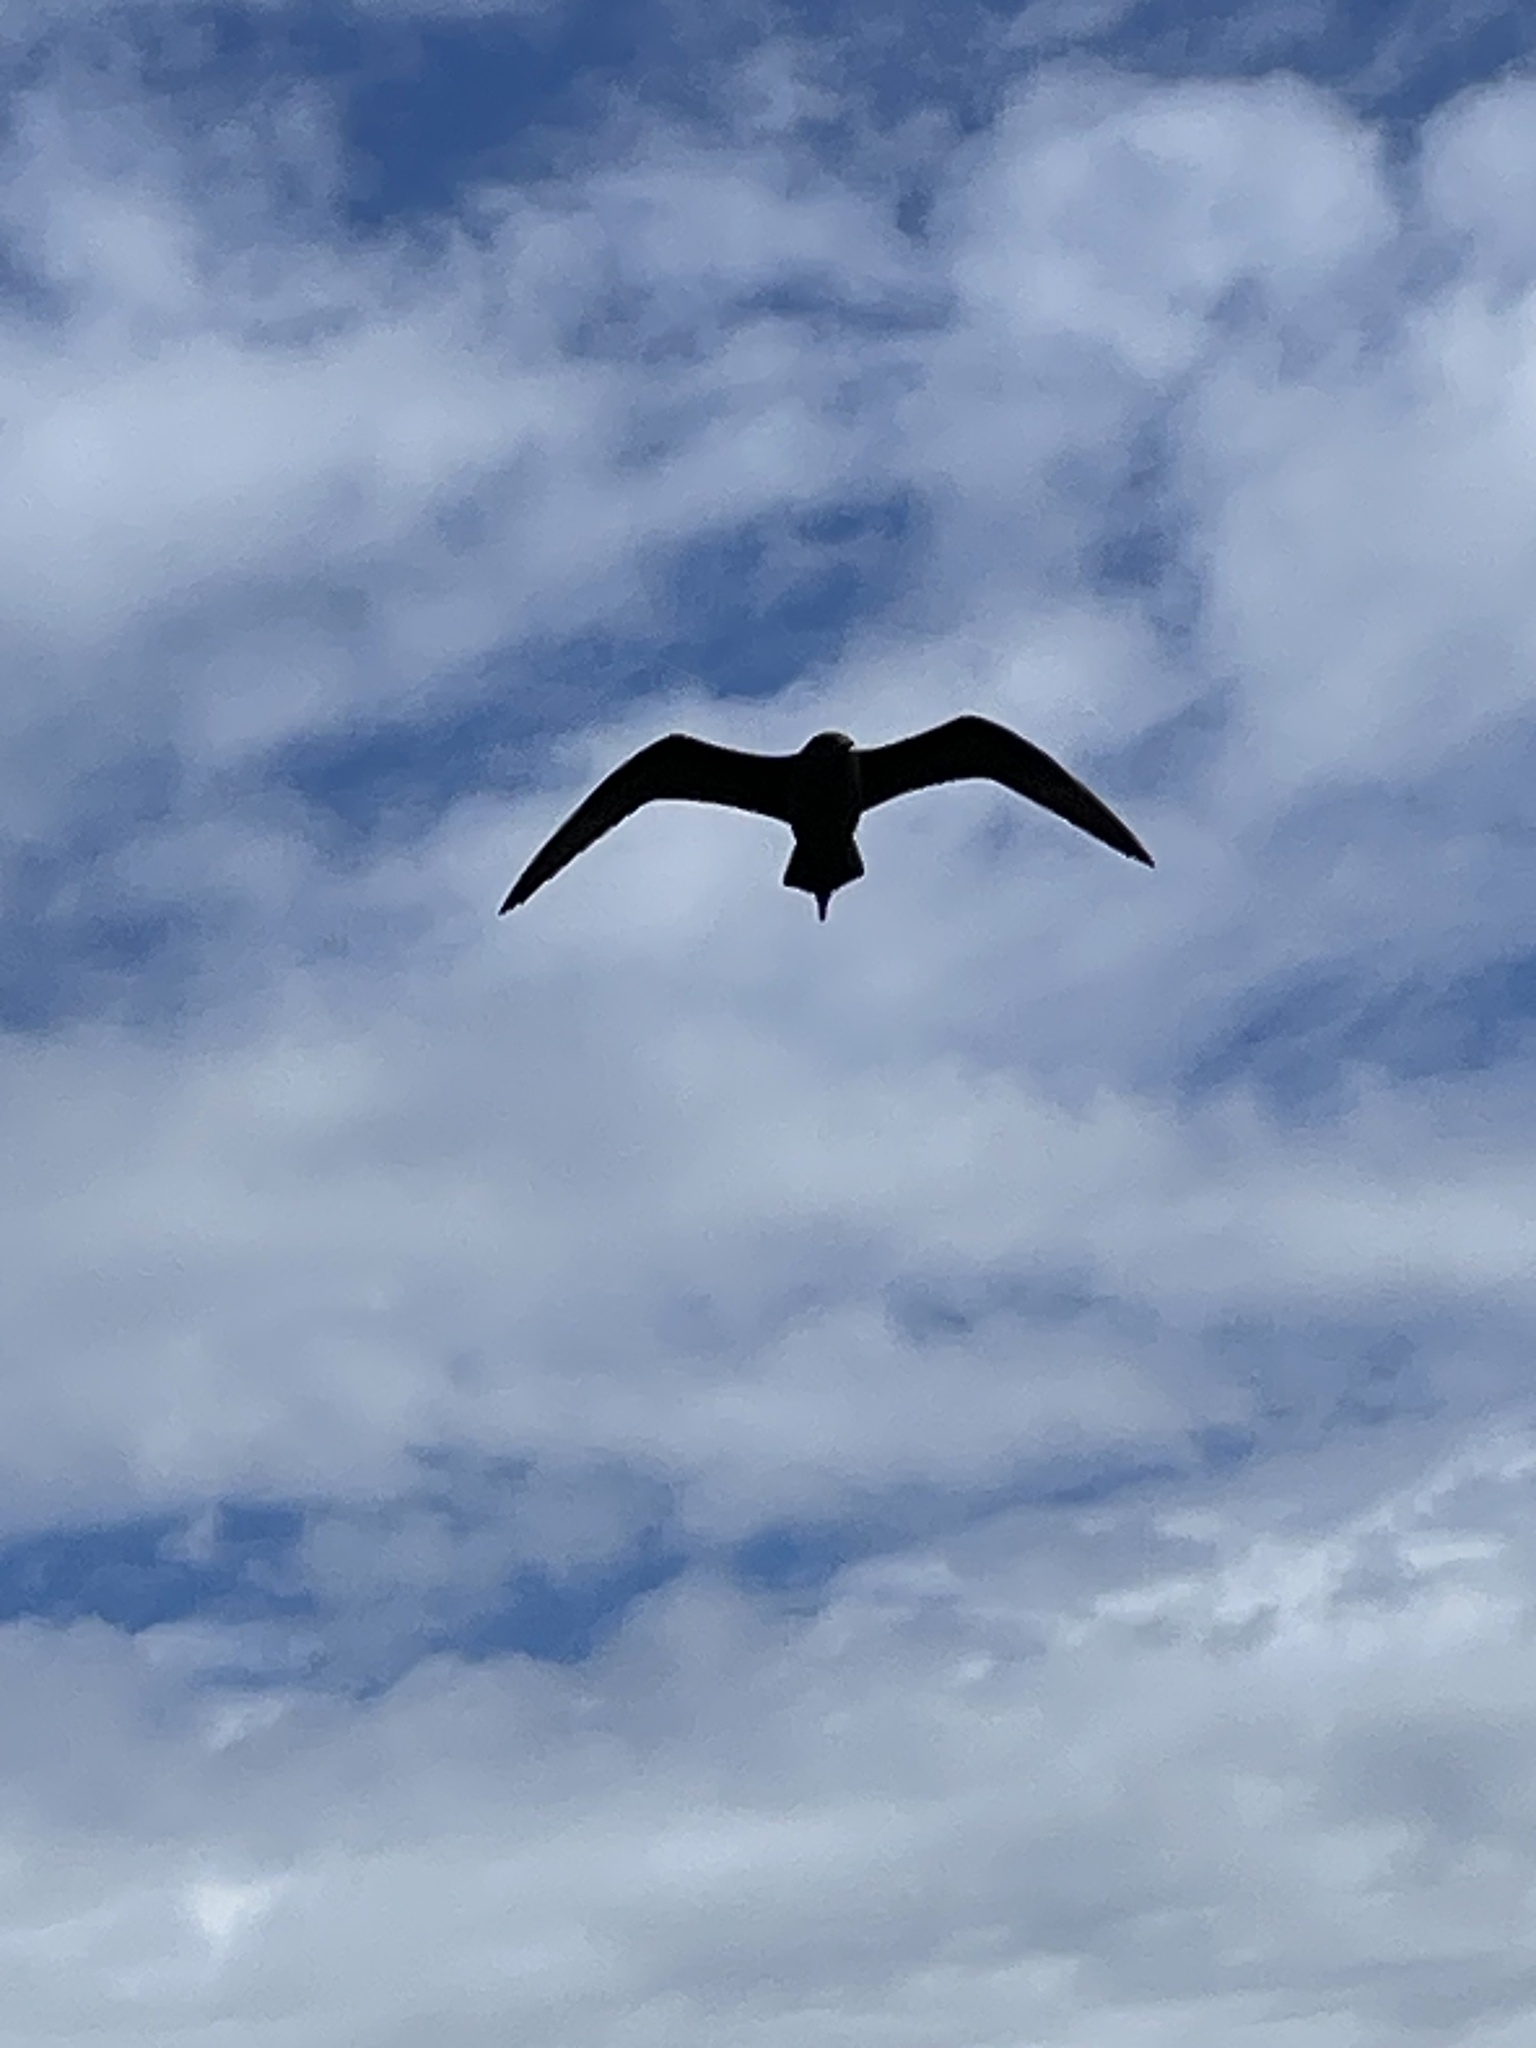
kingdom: Animalia
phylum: Chordata
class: Aves
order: Charadriiformes
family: Stercorariidae
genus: Stercorarius
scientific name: Stercorarius parasiticus
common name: Parasitic jaeger
